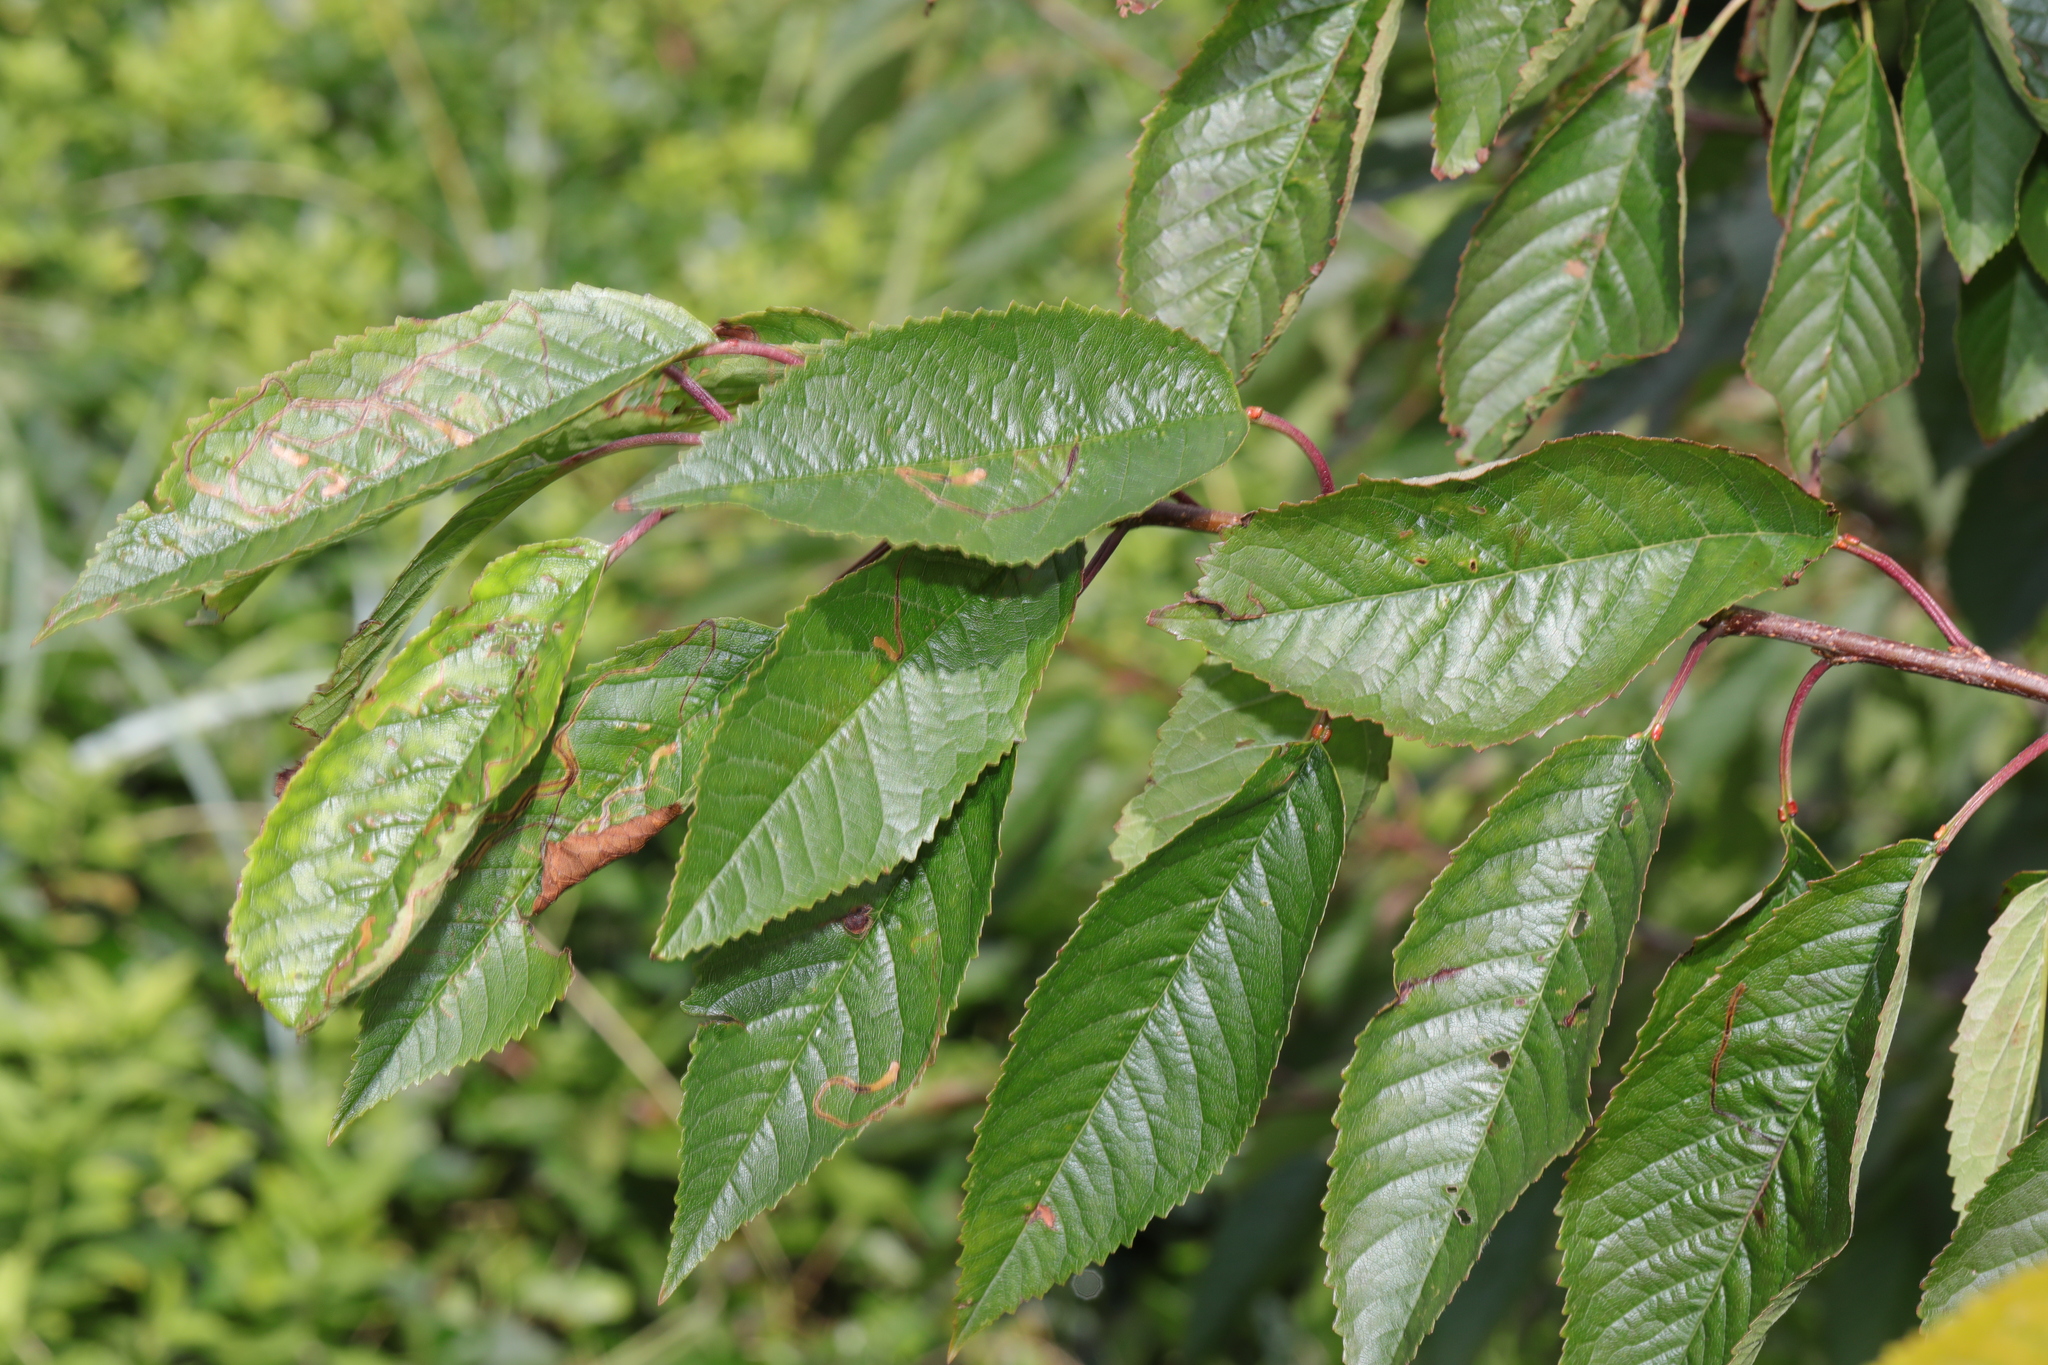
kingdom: Plantae
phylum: Tracheophyta
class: Magnoliopsida
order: Rosales
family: Rosaceae
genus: Prunus
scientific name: Prunus avium
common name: Sweet cherry
